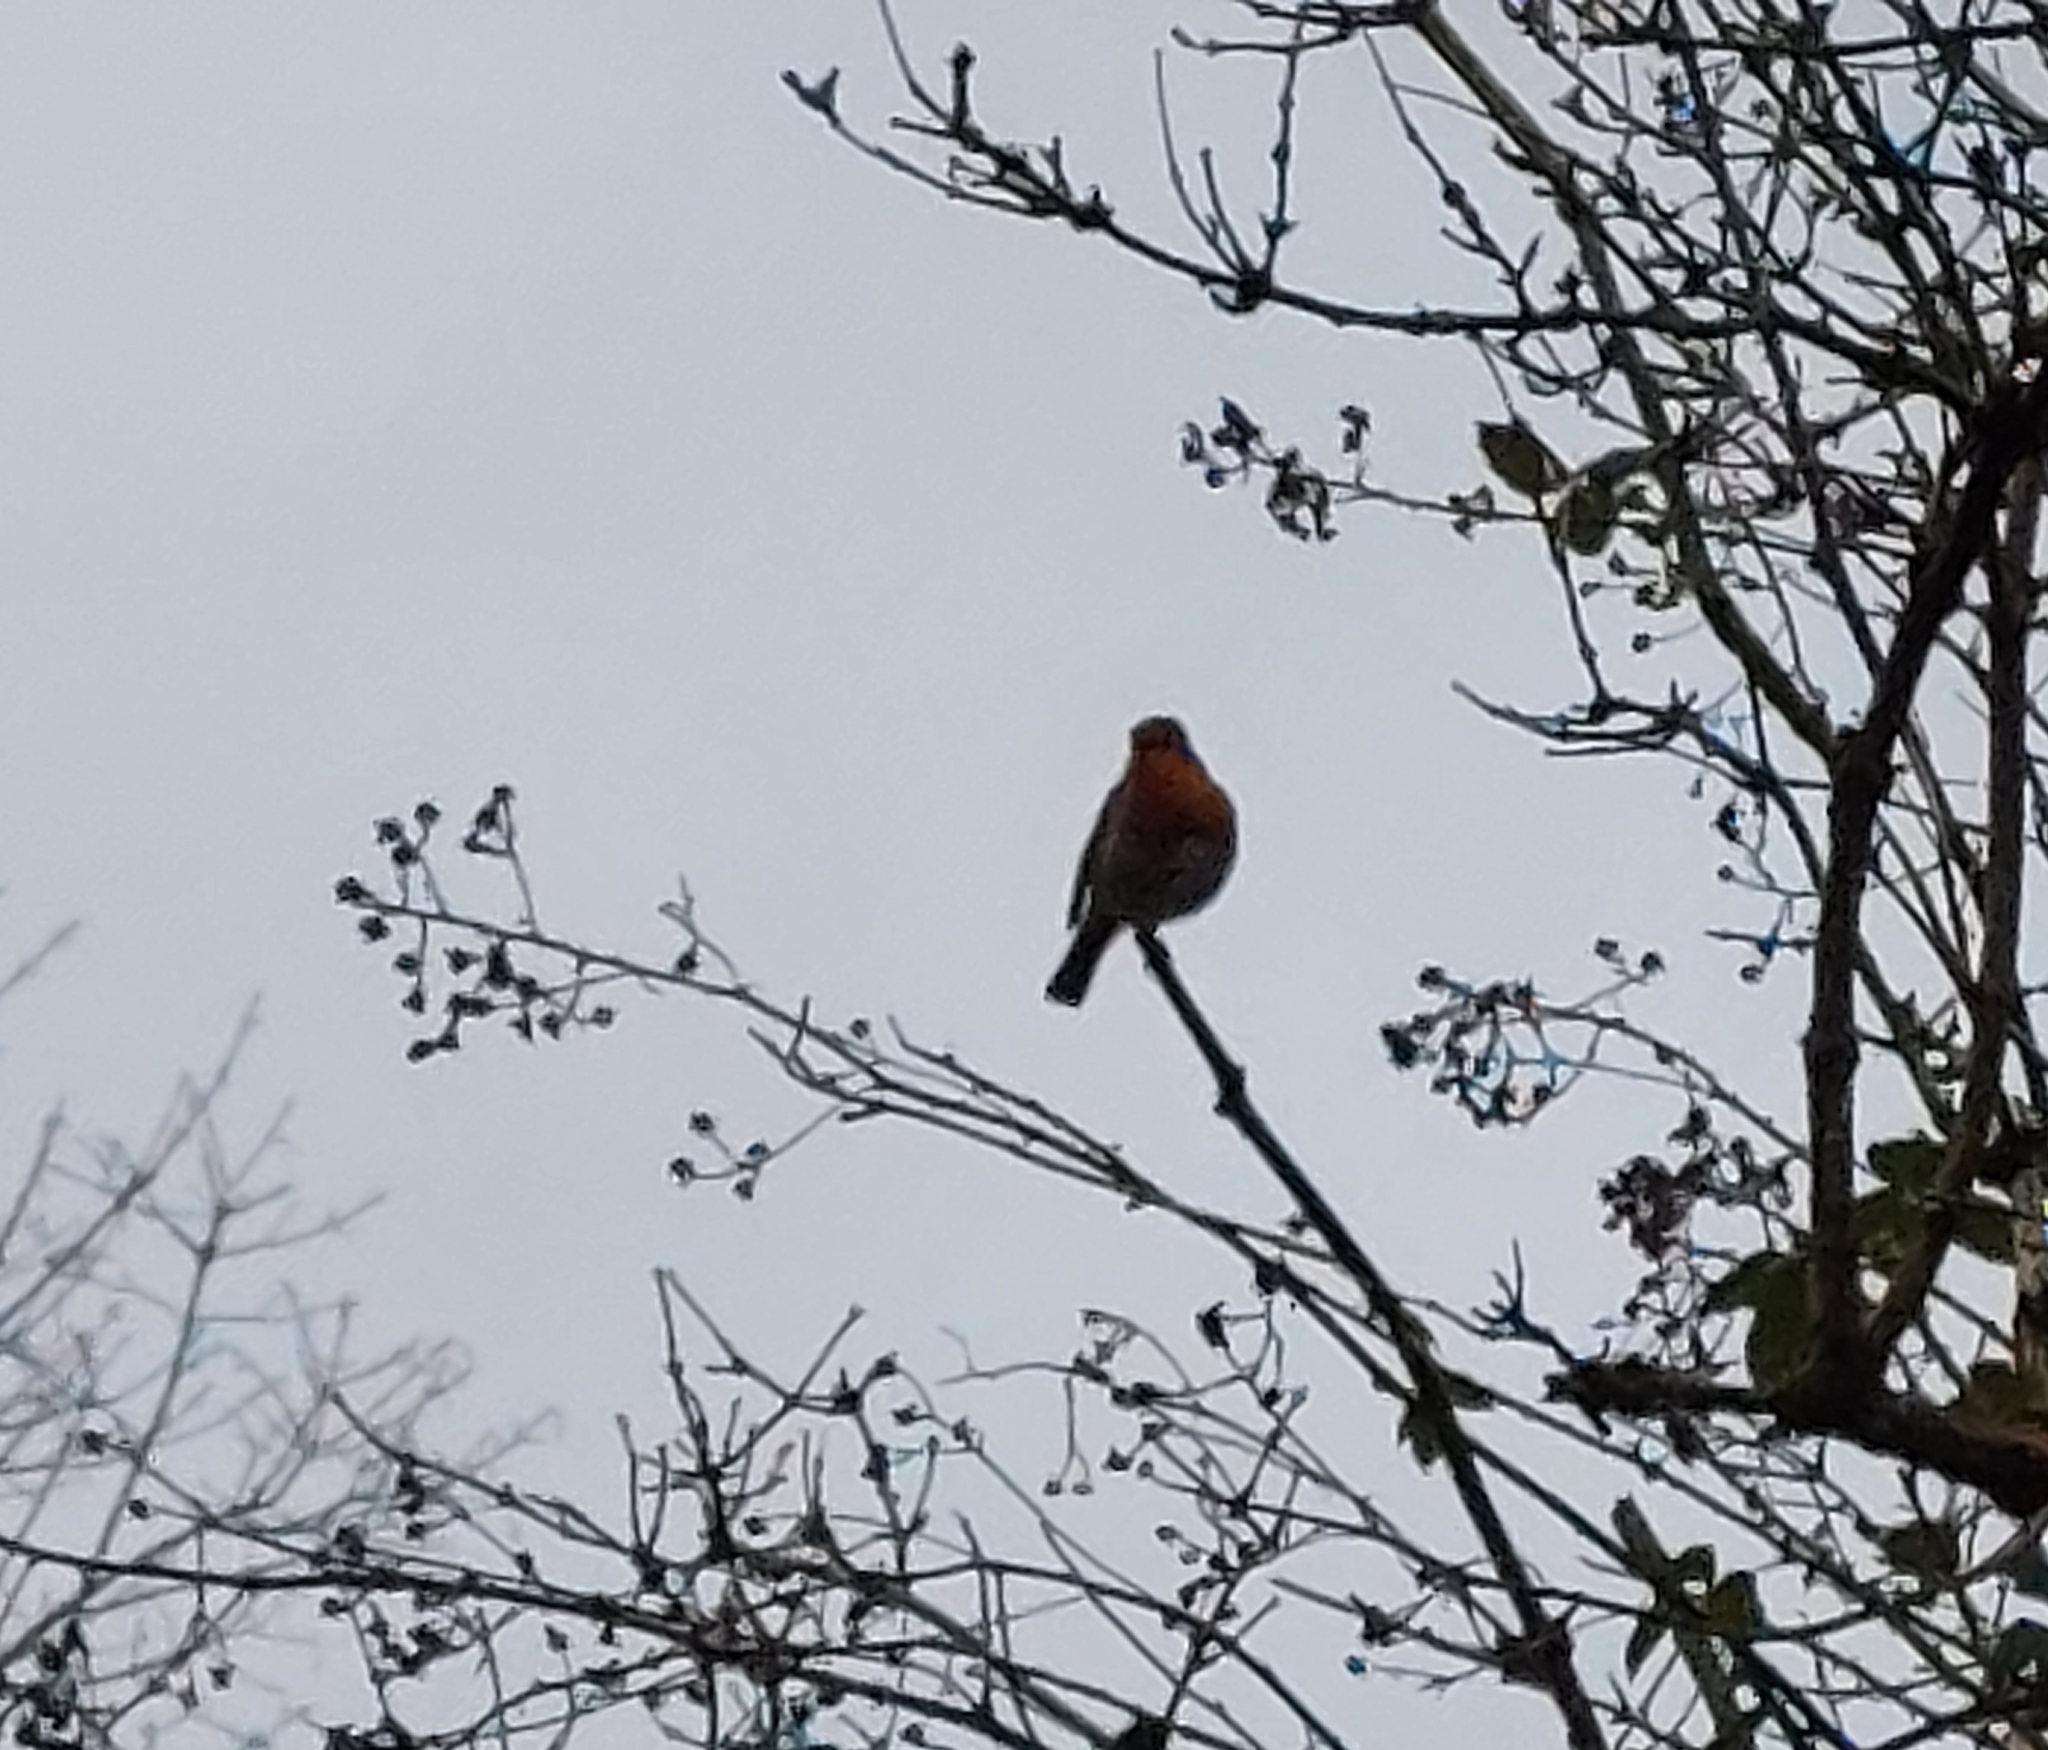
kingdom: Animalia
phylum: Chordata
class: Aves
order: Passeriformes
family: Muscicapidae
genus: Erithacus
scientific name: Erithacus rubecula
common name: European robin
